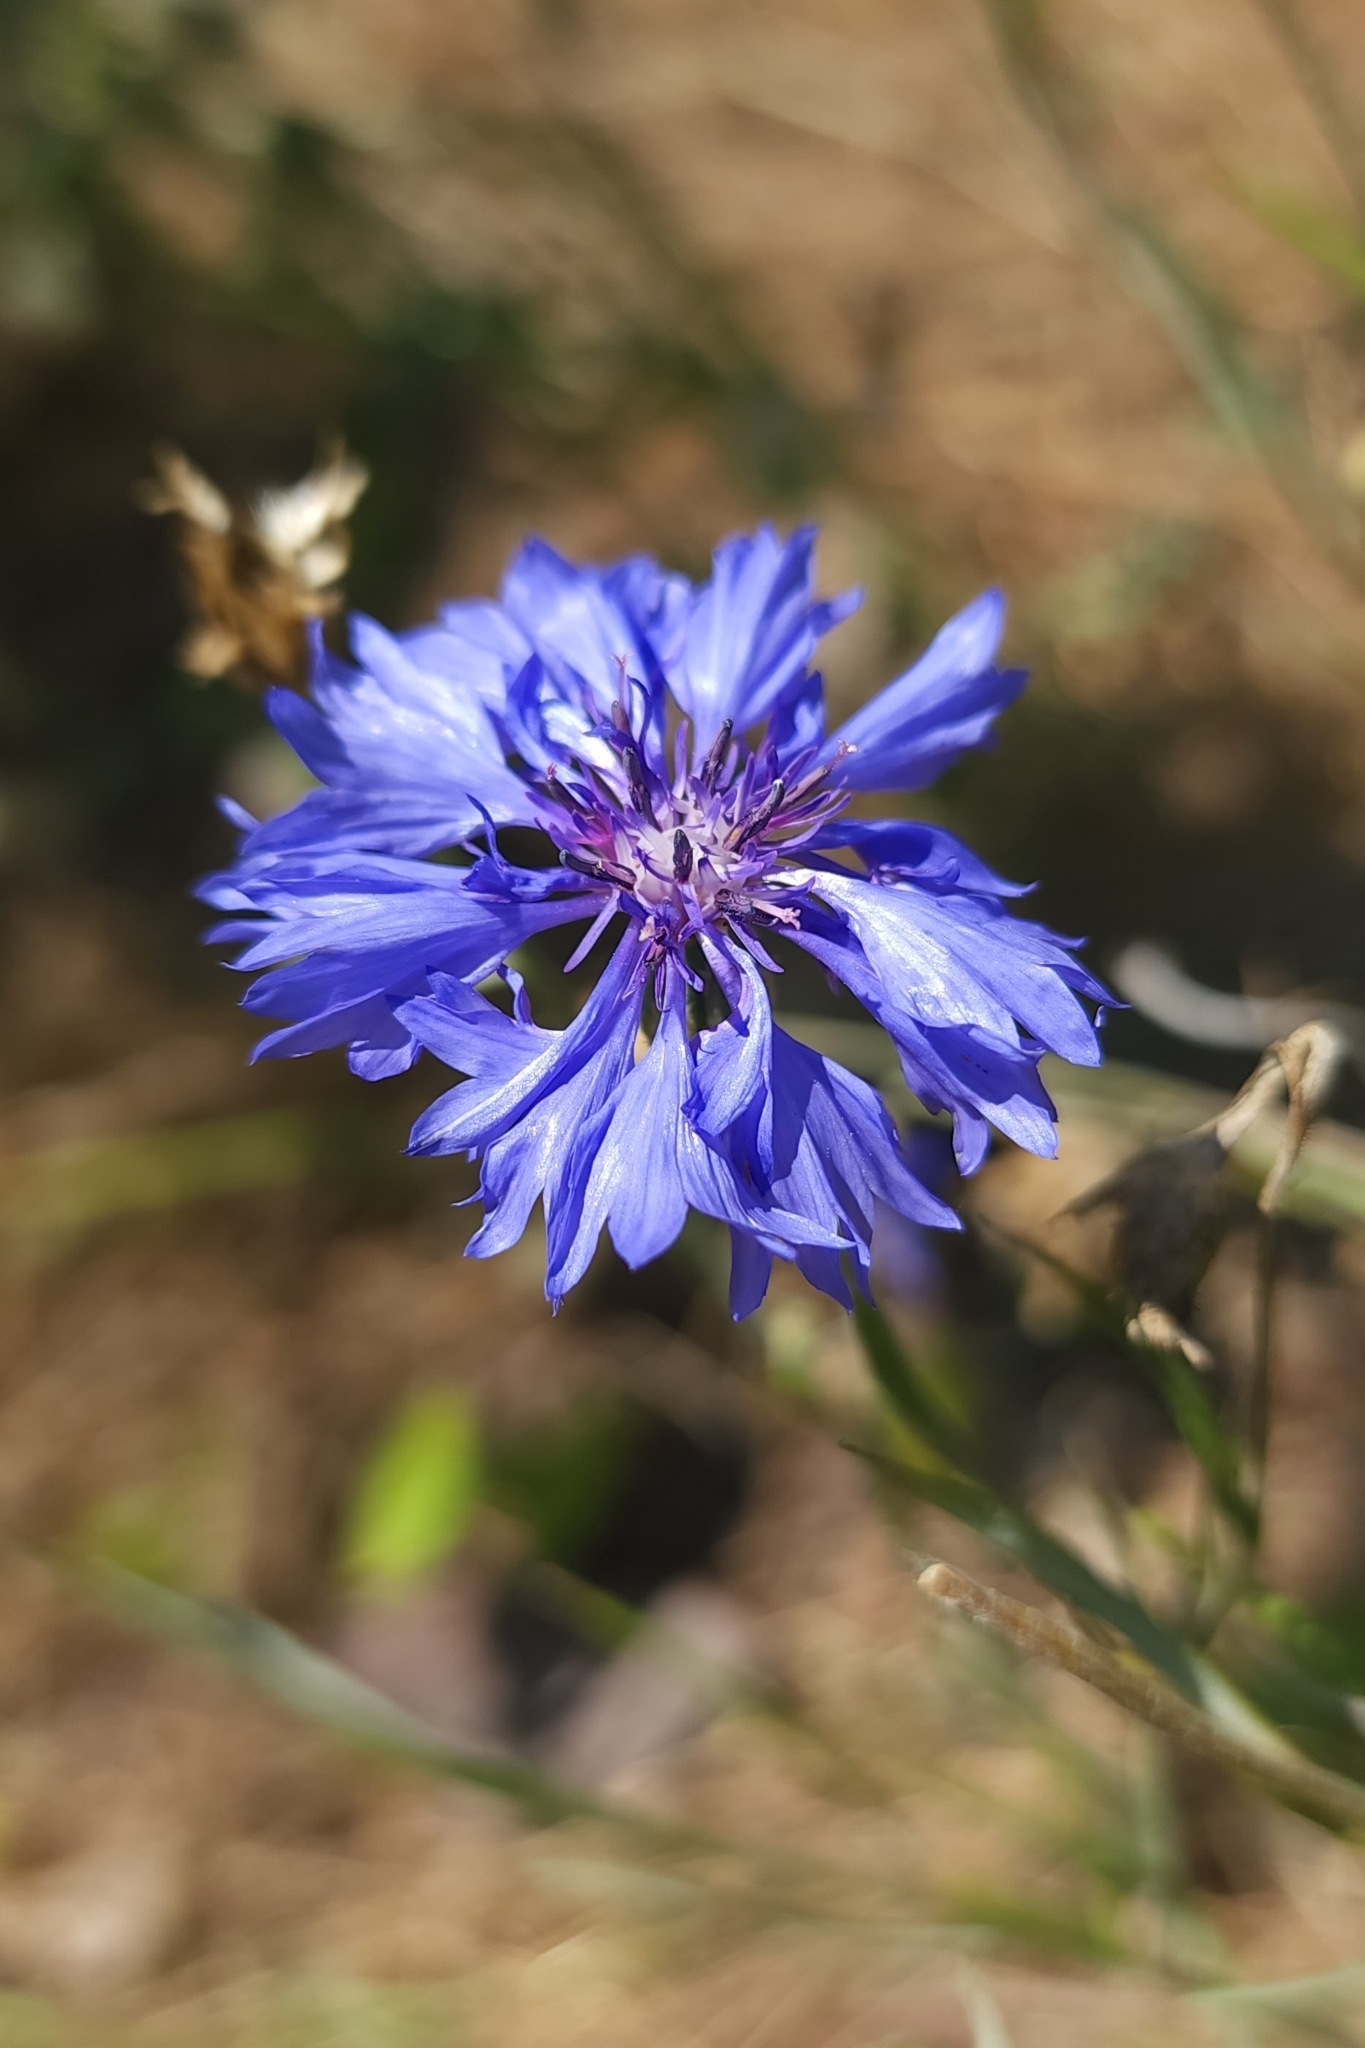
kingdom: Plantae
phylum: Tracheophyta
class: Magnoliopsida
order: Asterales
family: Asteraceae
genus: Centaurea
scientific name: Centaurea cyanus
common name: Cornflower
